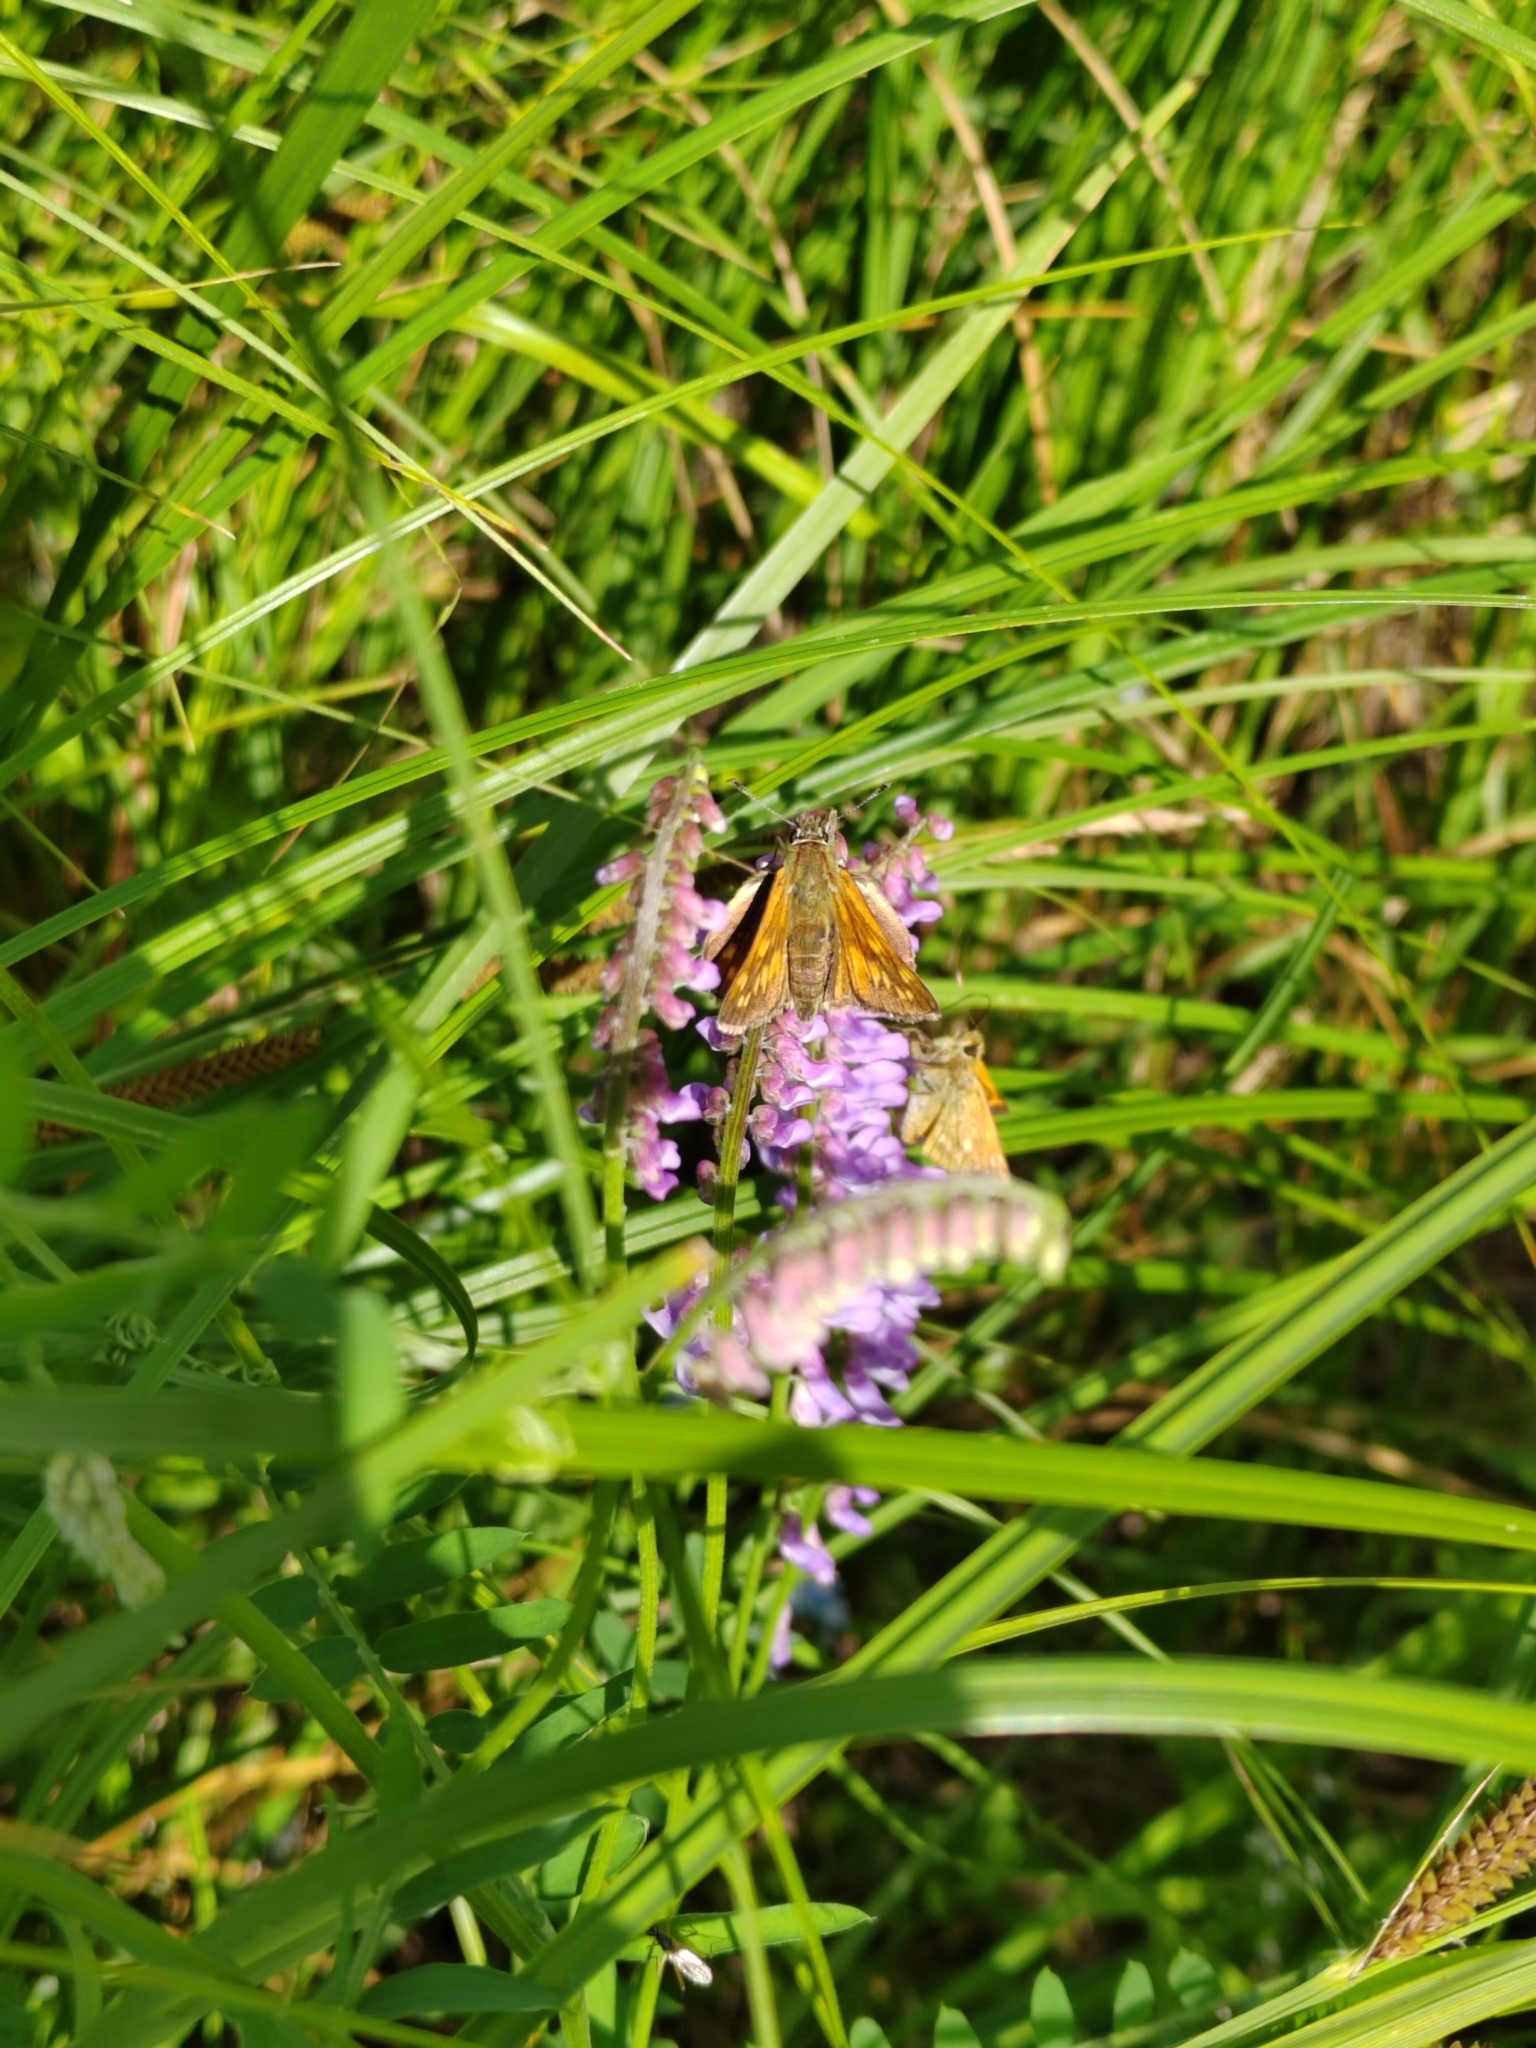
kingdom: Animalia
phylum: Arthropoda
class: Insecta
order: Lepidoptera
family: Hesperiidae
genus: Ochlodes
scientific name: Ochlodes venata
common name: Large skipper
